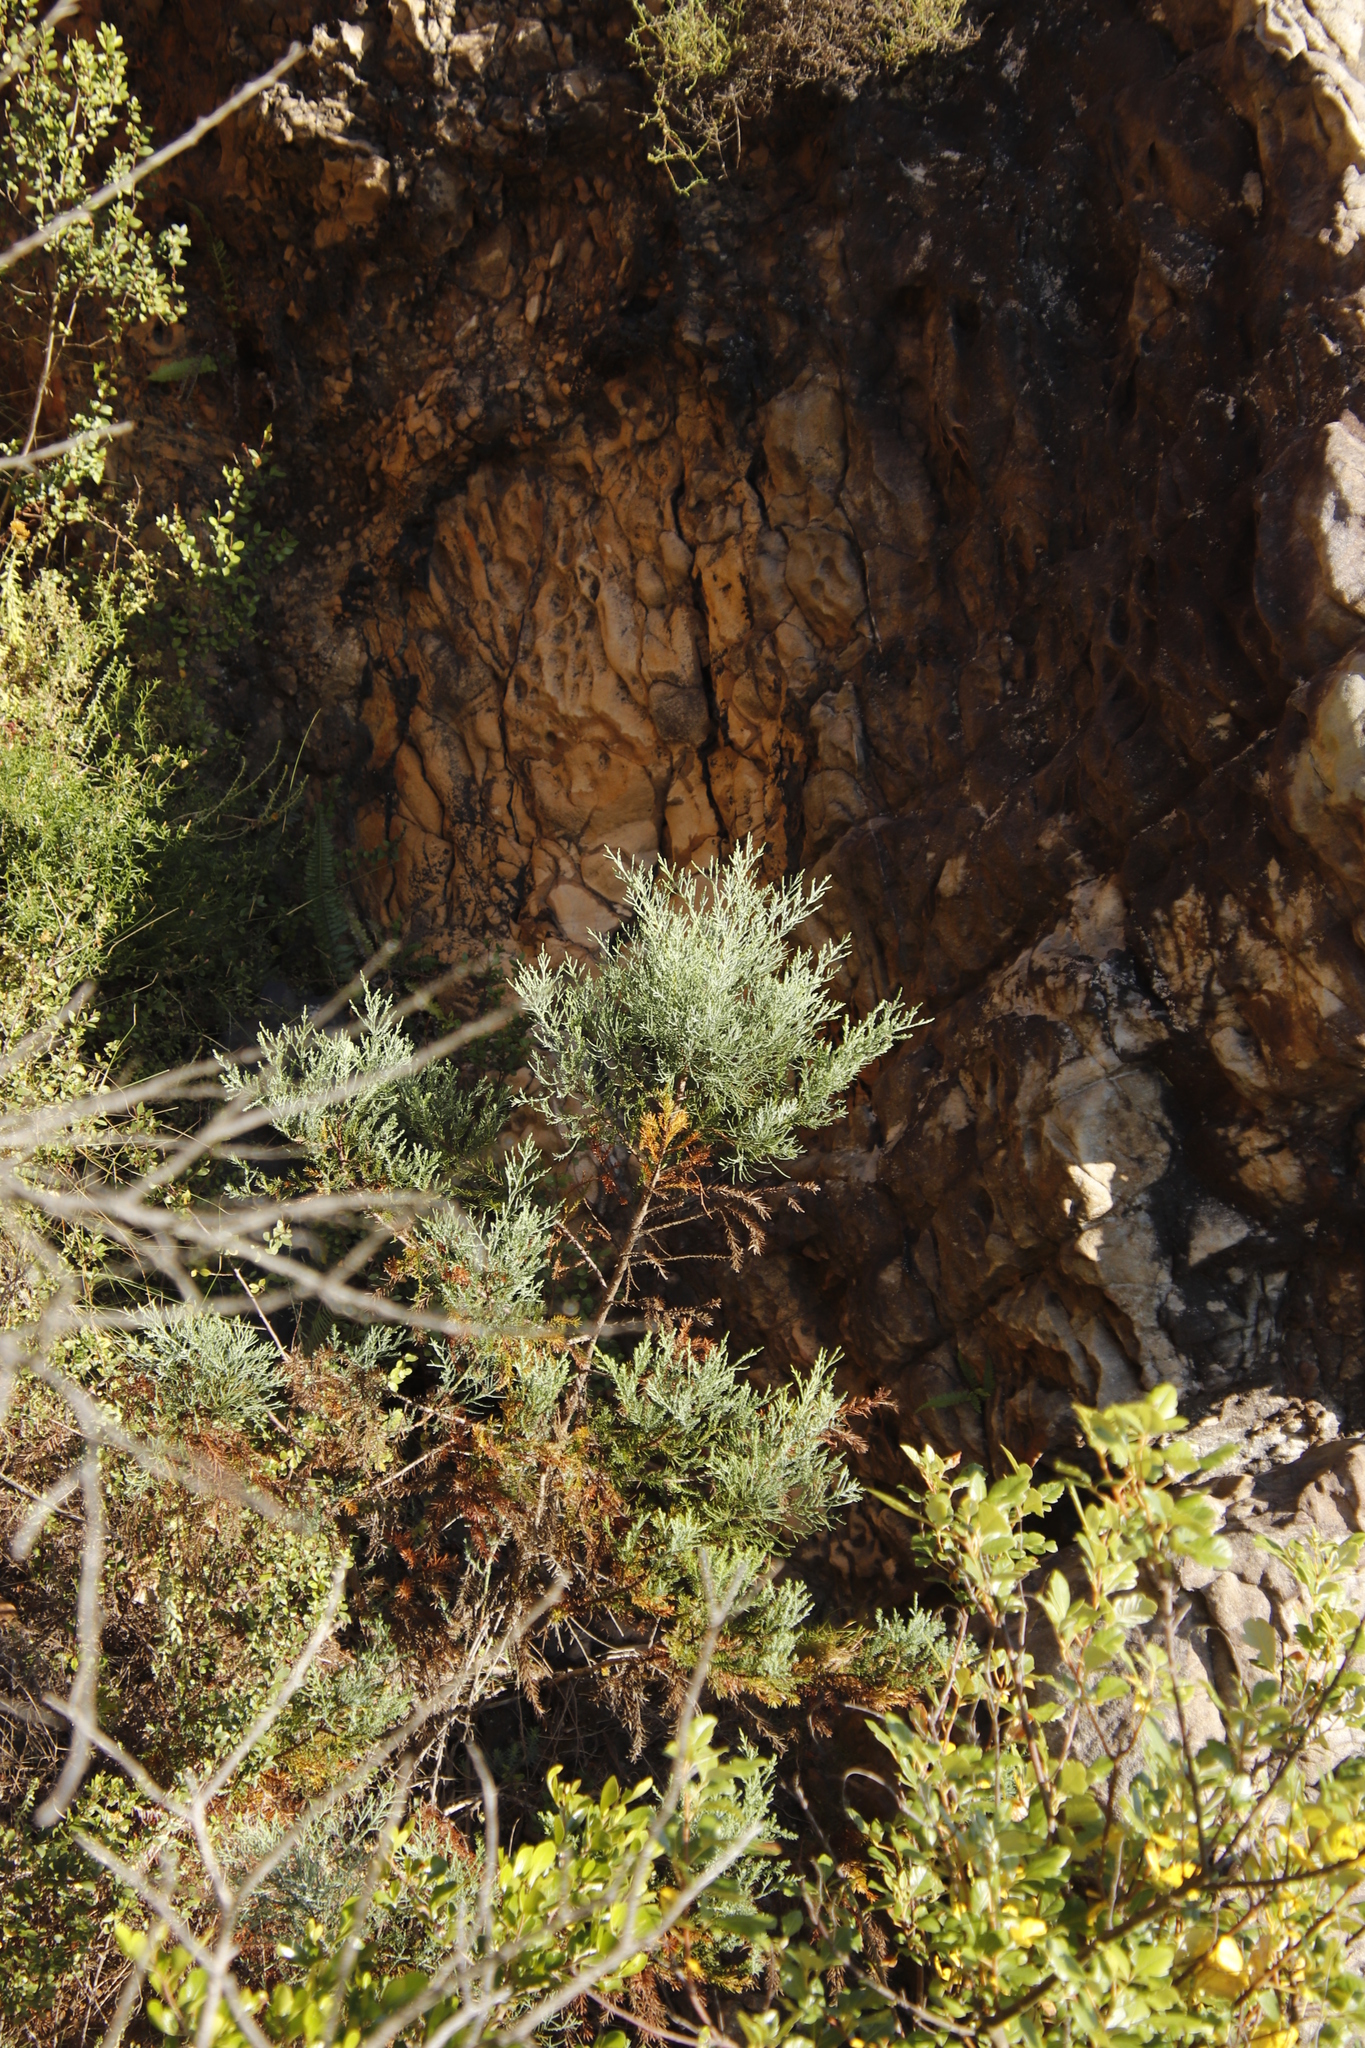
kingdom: Plantae
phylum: Tracheophyta
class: Pinopsida
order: Pinales
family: Cupressaceae
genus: Widdringtonia
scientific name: Widdringtonia nodiflora
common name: Cape cypress
